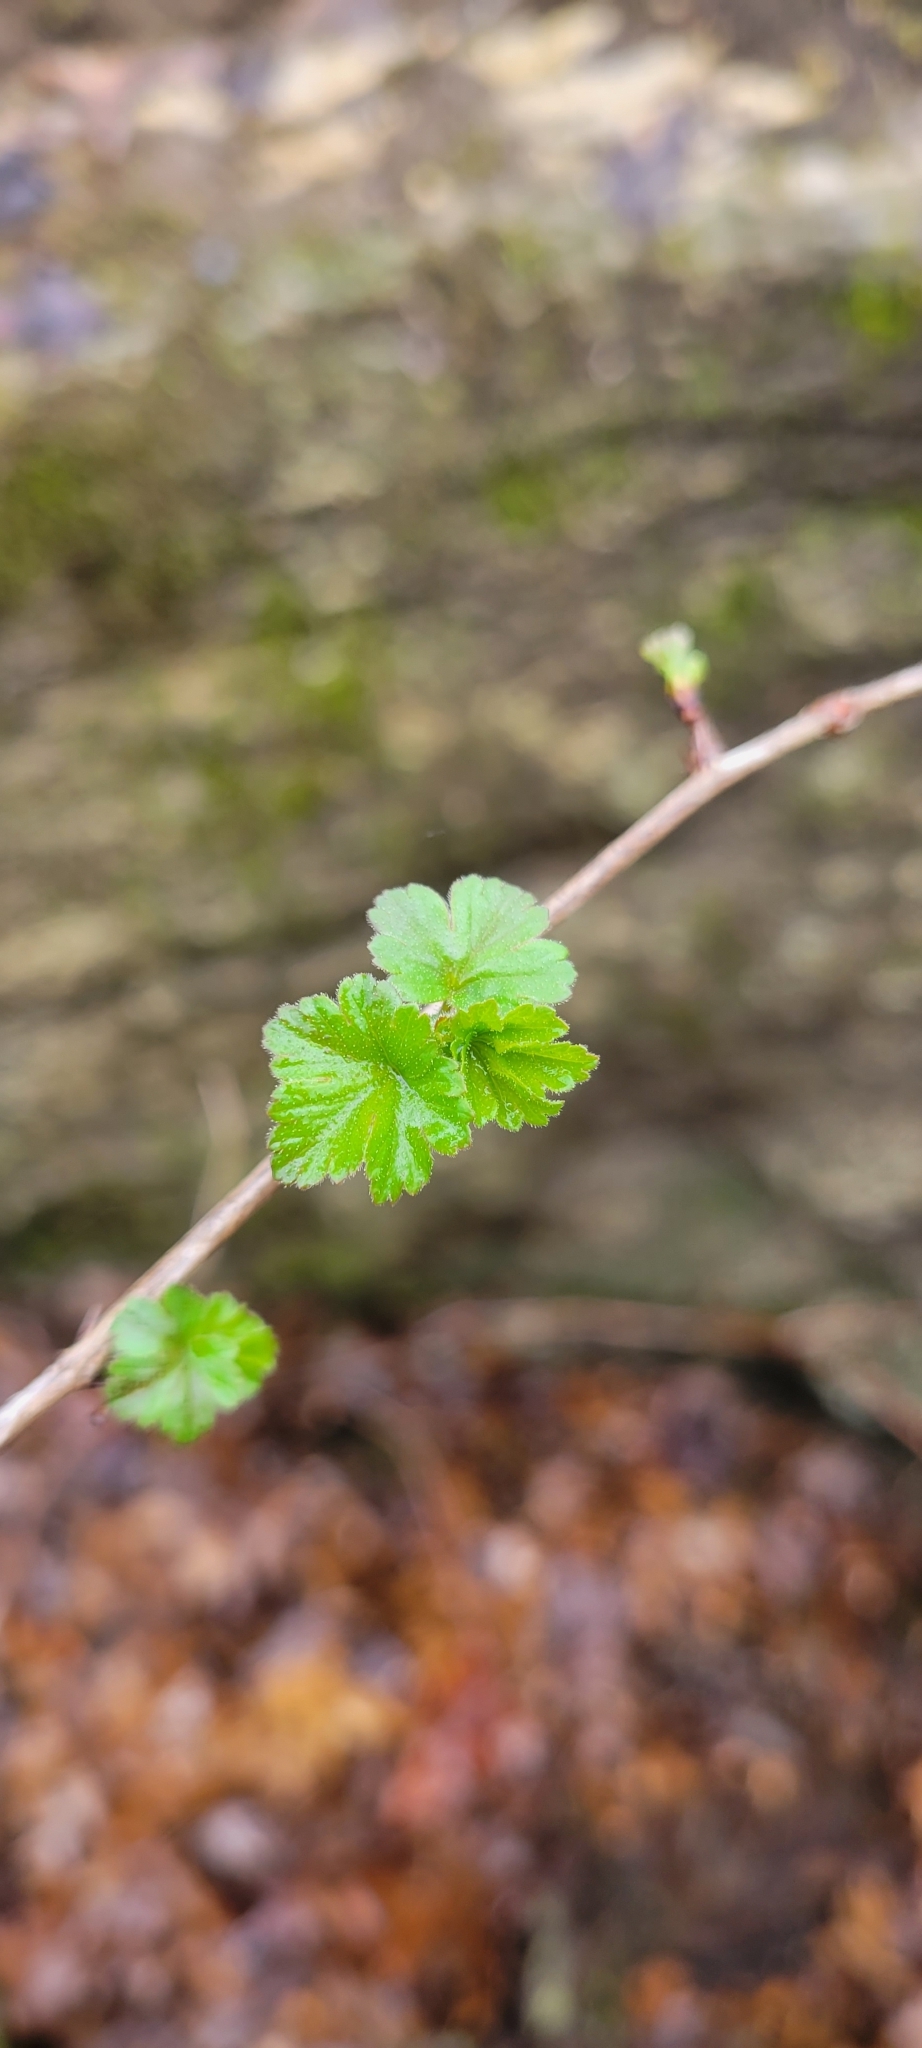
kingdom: Plantae
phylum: Tracheophyta
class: Magnoliopsida
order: Saxifragales
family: Grossulariaceae
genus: Ribes
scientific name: Ribes cynosbati
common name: American gooseberry
